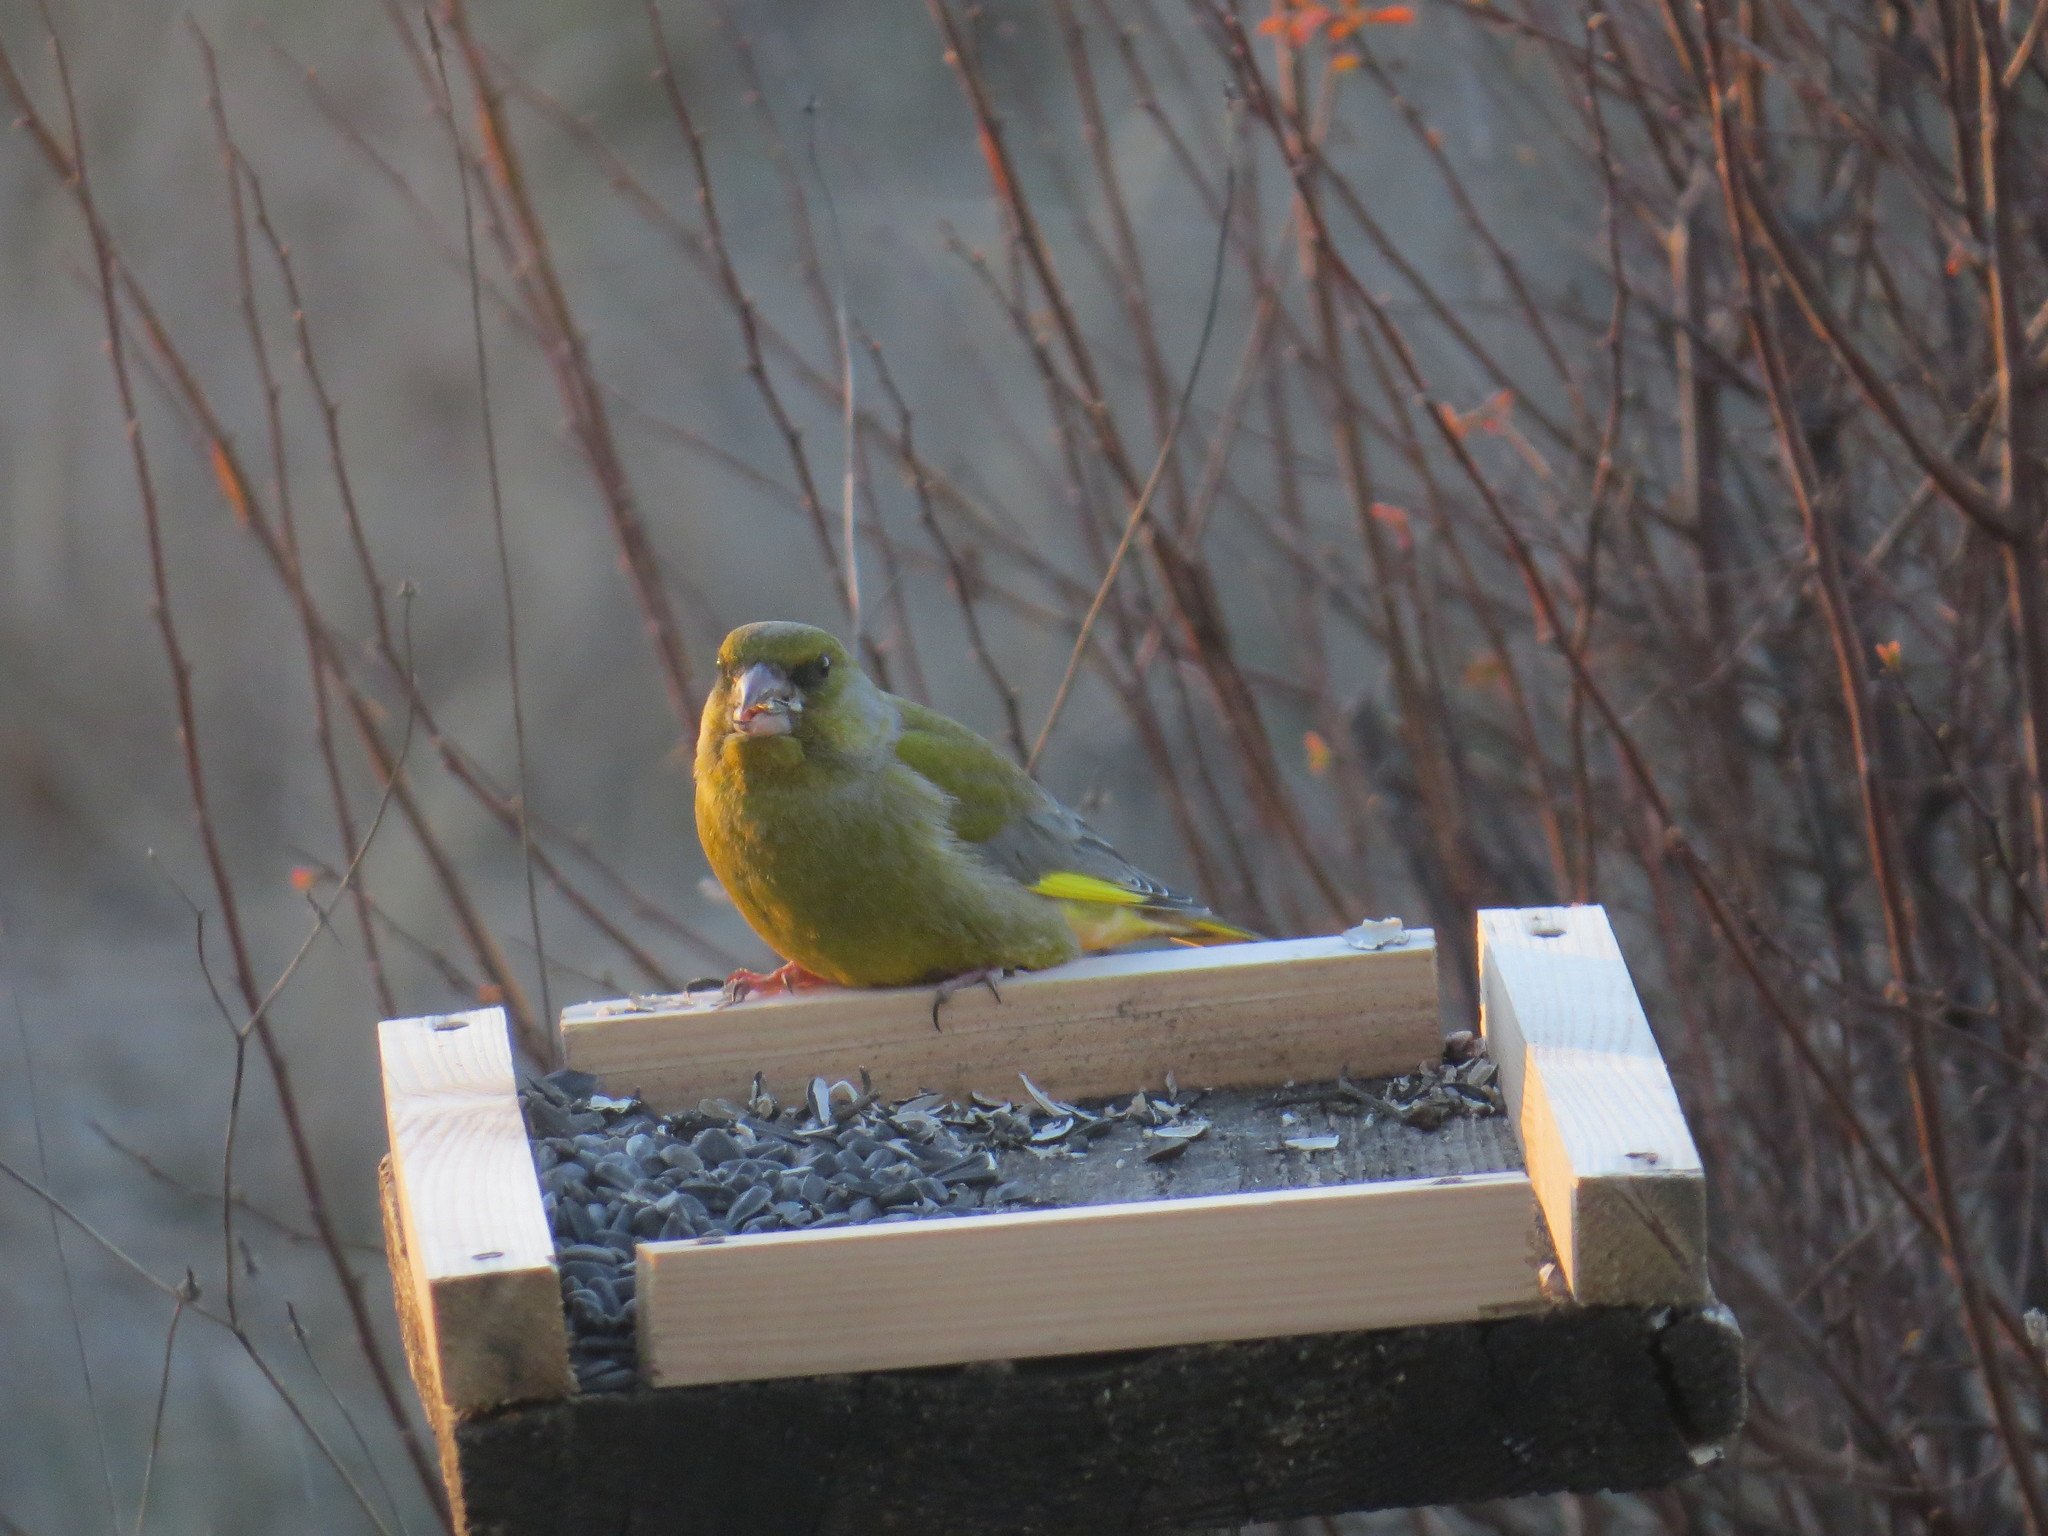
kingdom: Plantae
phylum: Tracheophyta
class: Liliopsida
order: Poales
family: Poaceae
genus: Chloris
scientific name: Chloris chloris
